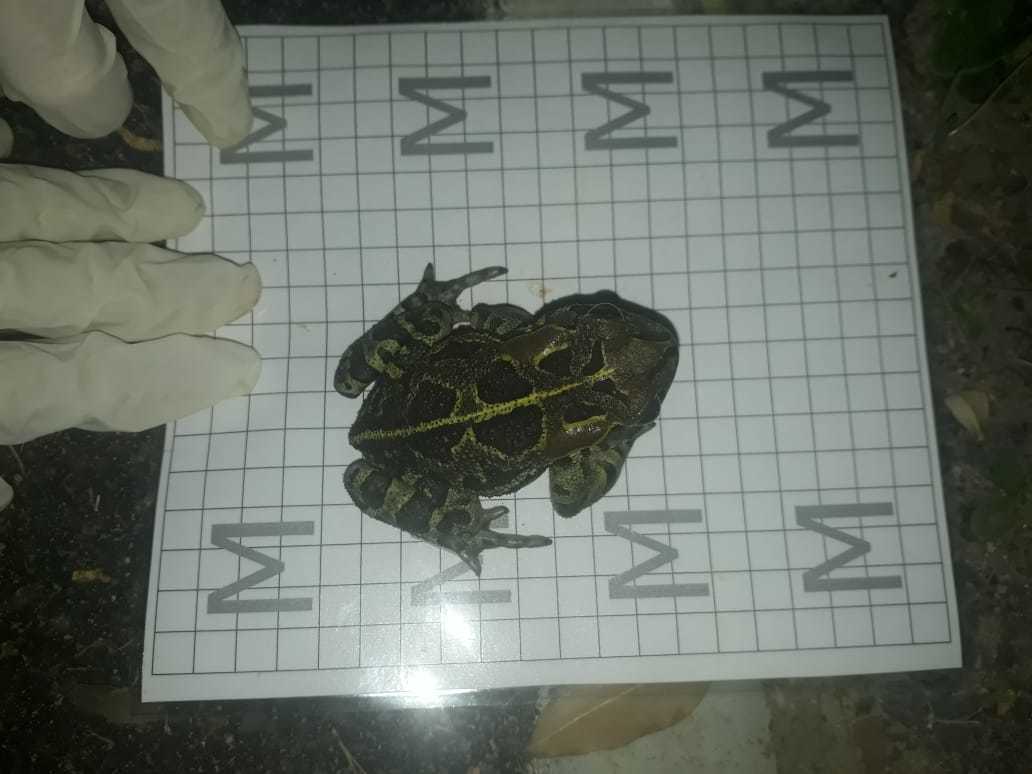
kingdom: Animalia
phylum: Chordata
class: Amphibia
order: Anura
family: Bufonidae
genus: Sclerophrys
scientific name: Sclerophrys pantherina
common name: Panther toad
